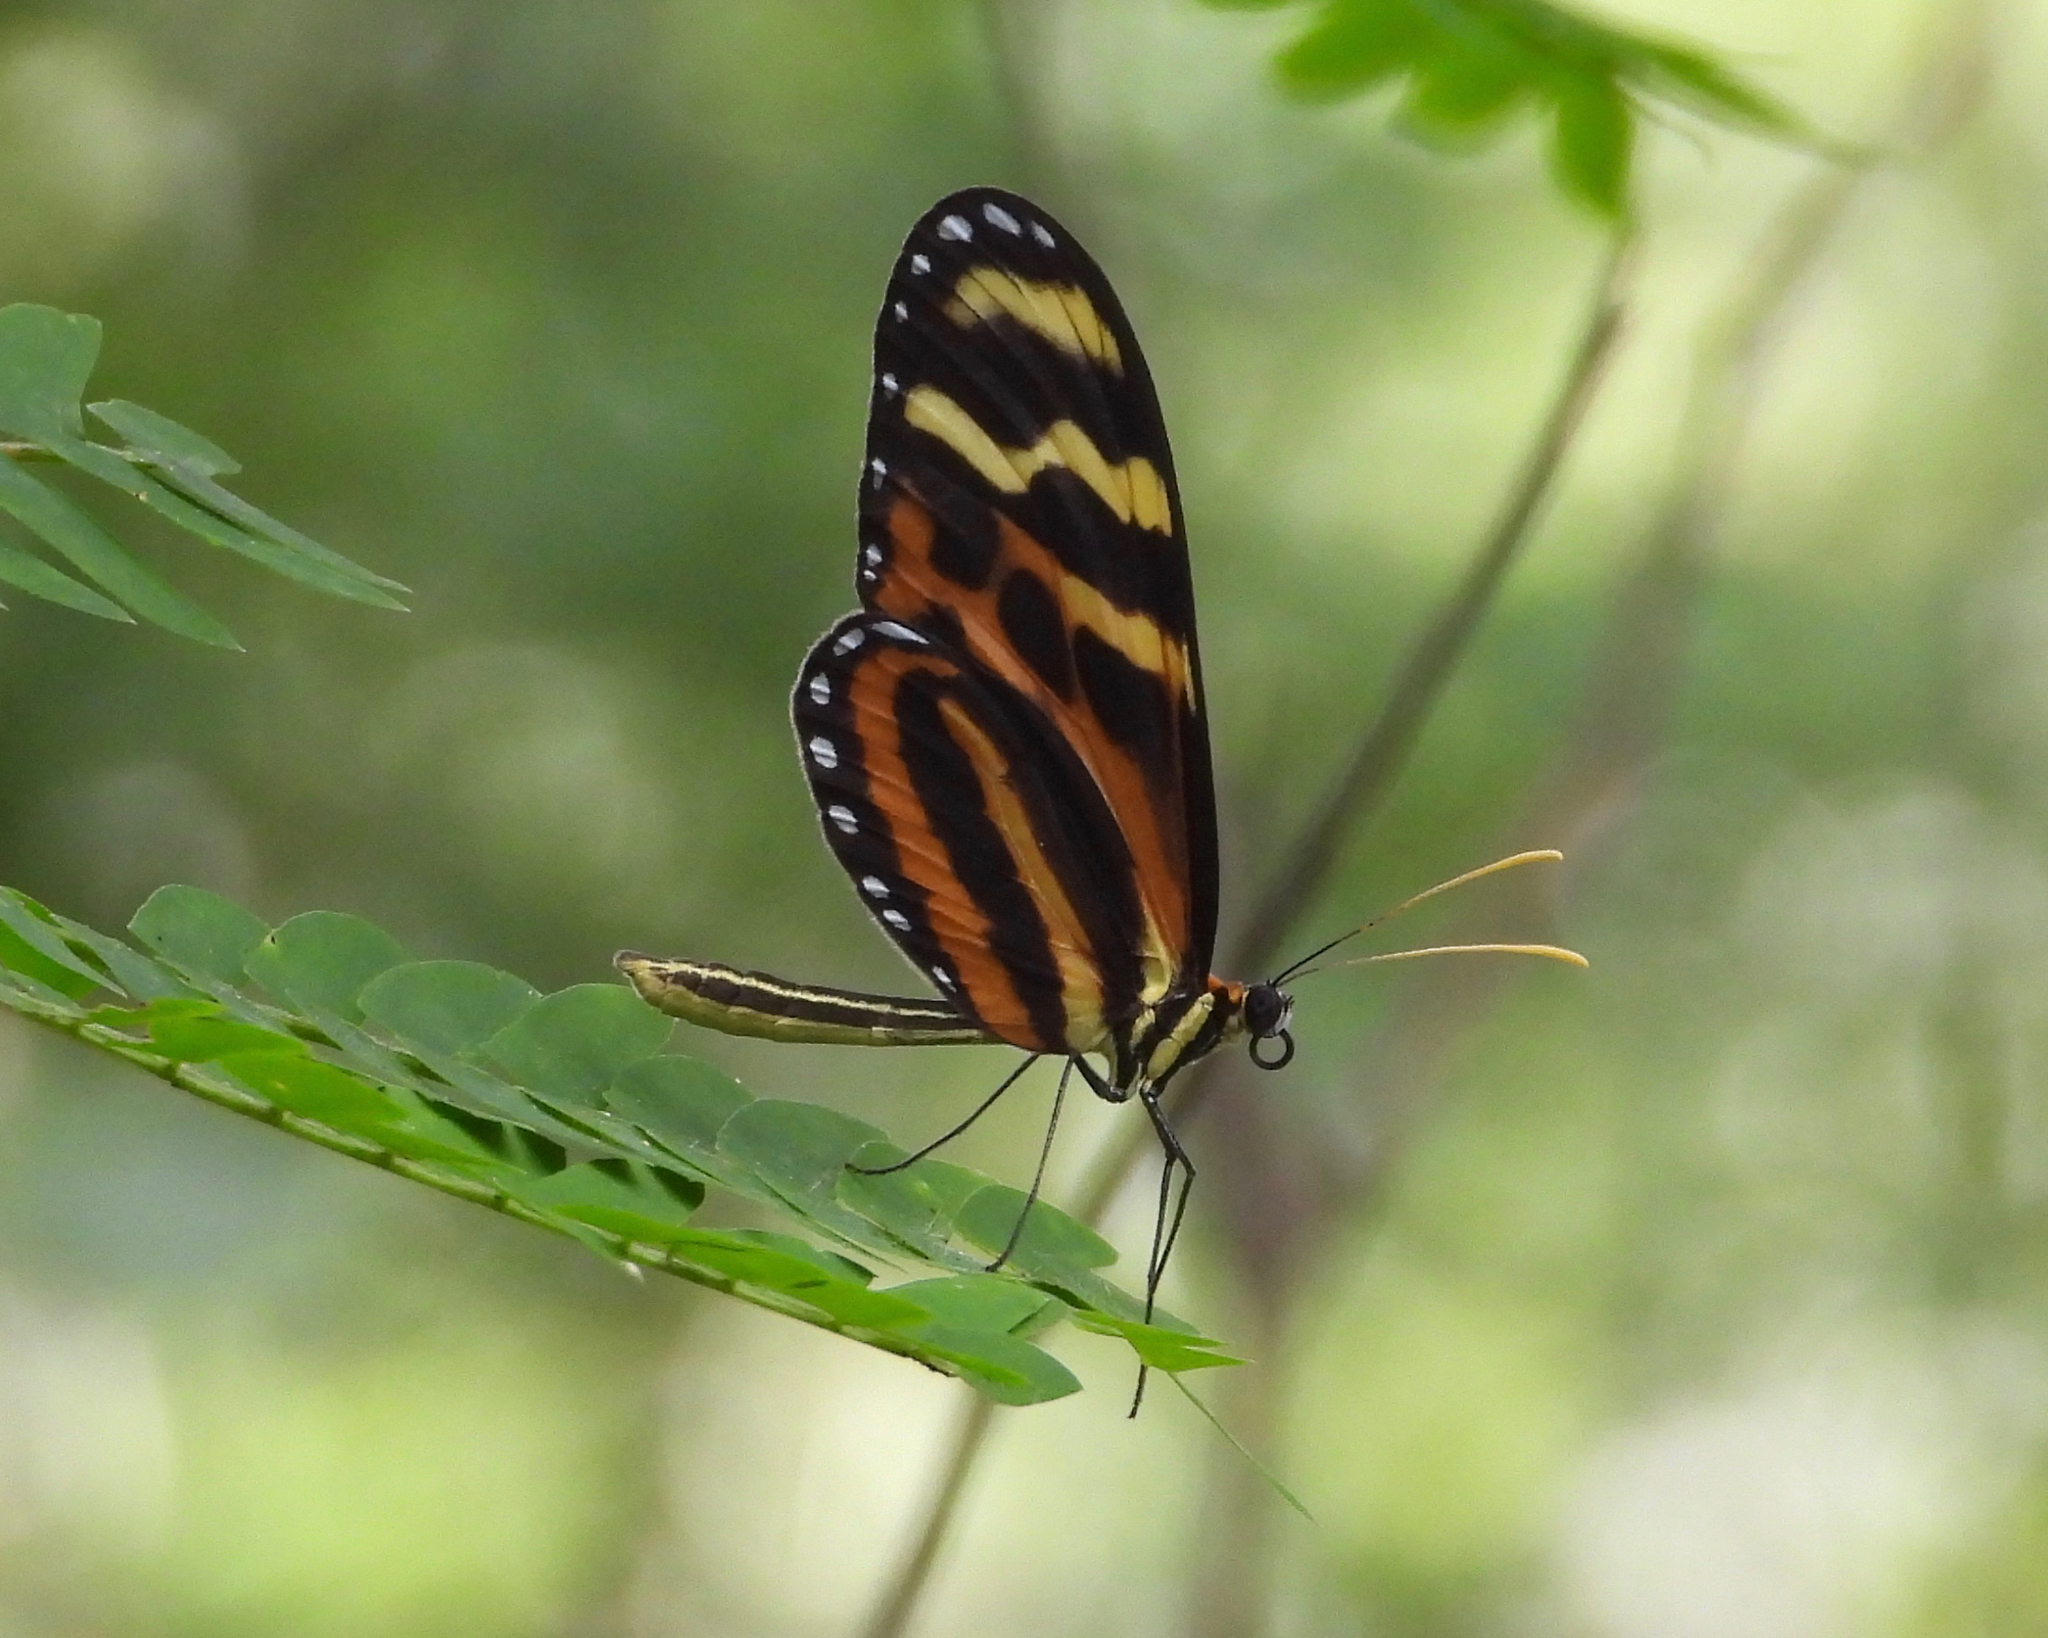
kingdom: Animalia
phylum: Arthropoda
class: Insecta
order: Lepidoptera
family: Nymphalidae
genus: Mechanitis
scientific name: Mechanitis menapis
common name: Menapis tigerwing
